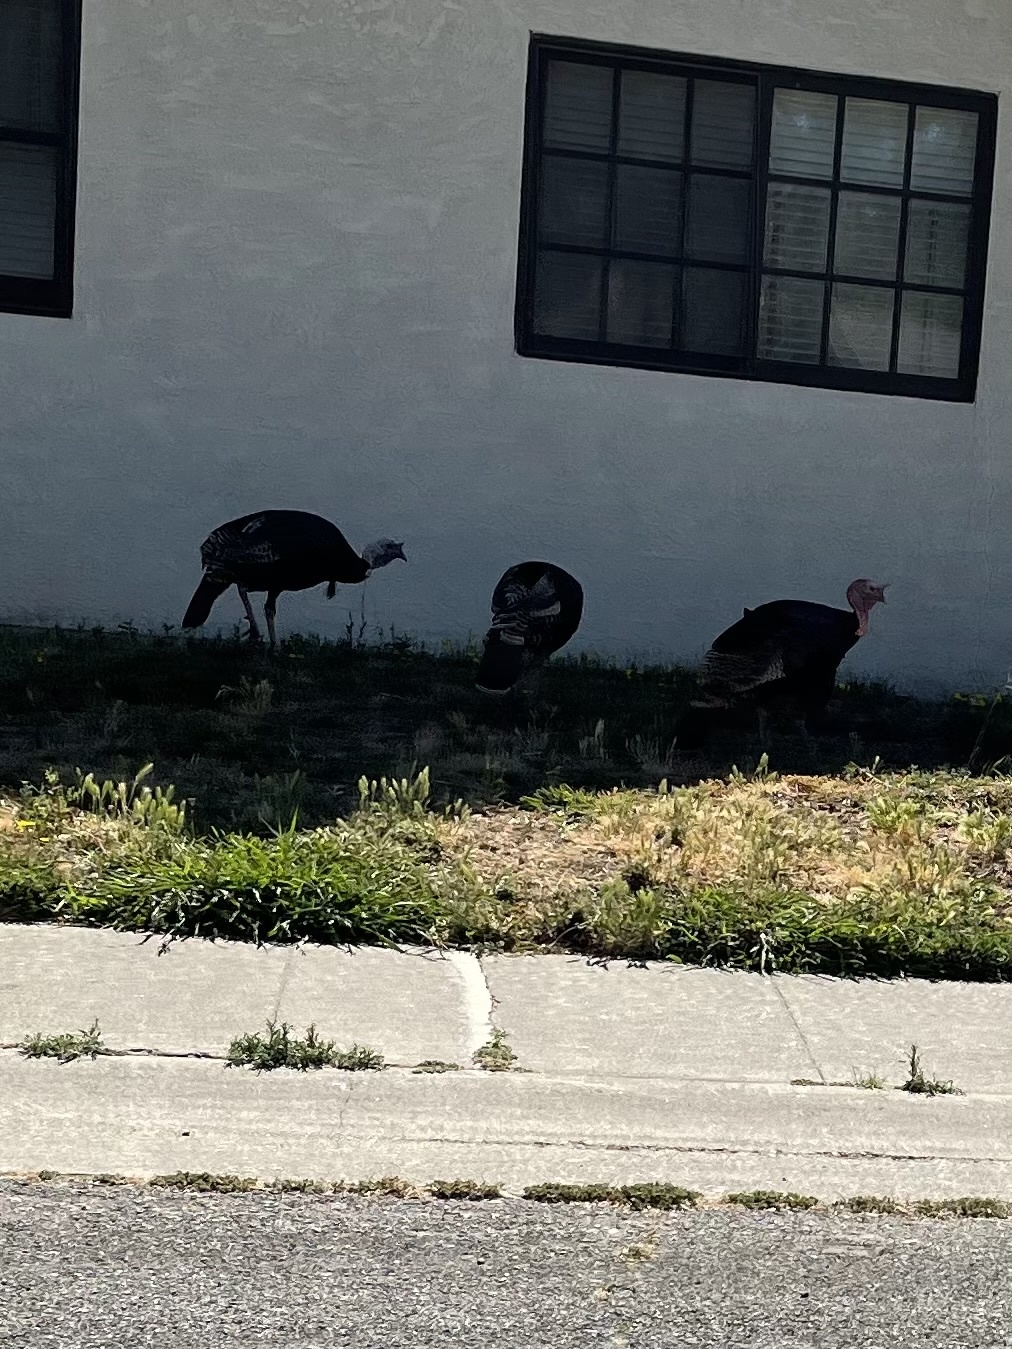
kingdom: Animalia
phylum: Chordata
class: Aves
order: Galliformes
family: Phasianidae
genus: Meleagris
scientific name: Meleagris gallopavo
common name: Wild turkey
